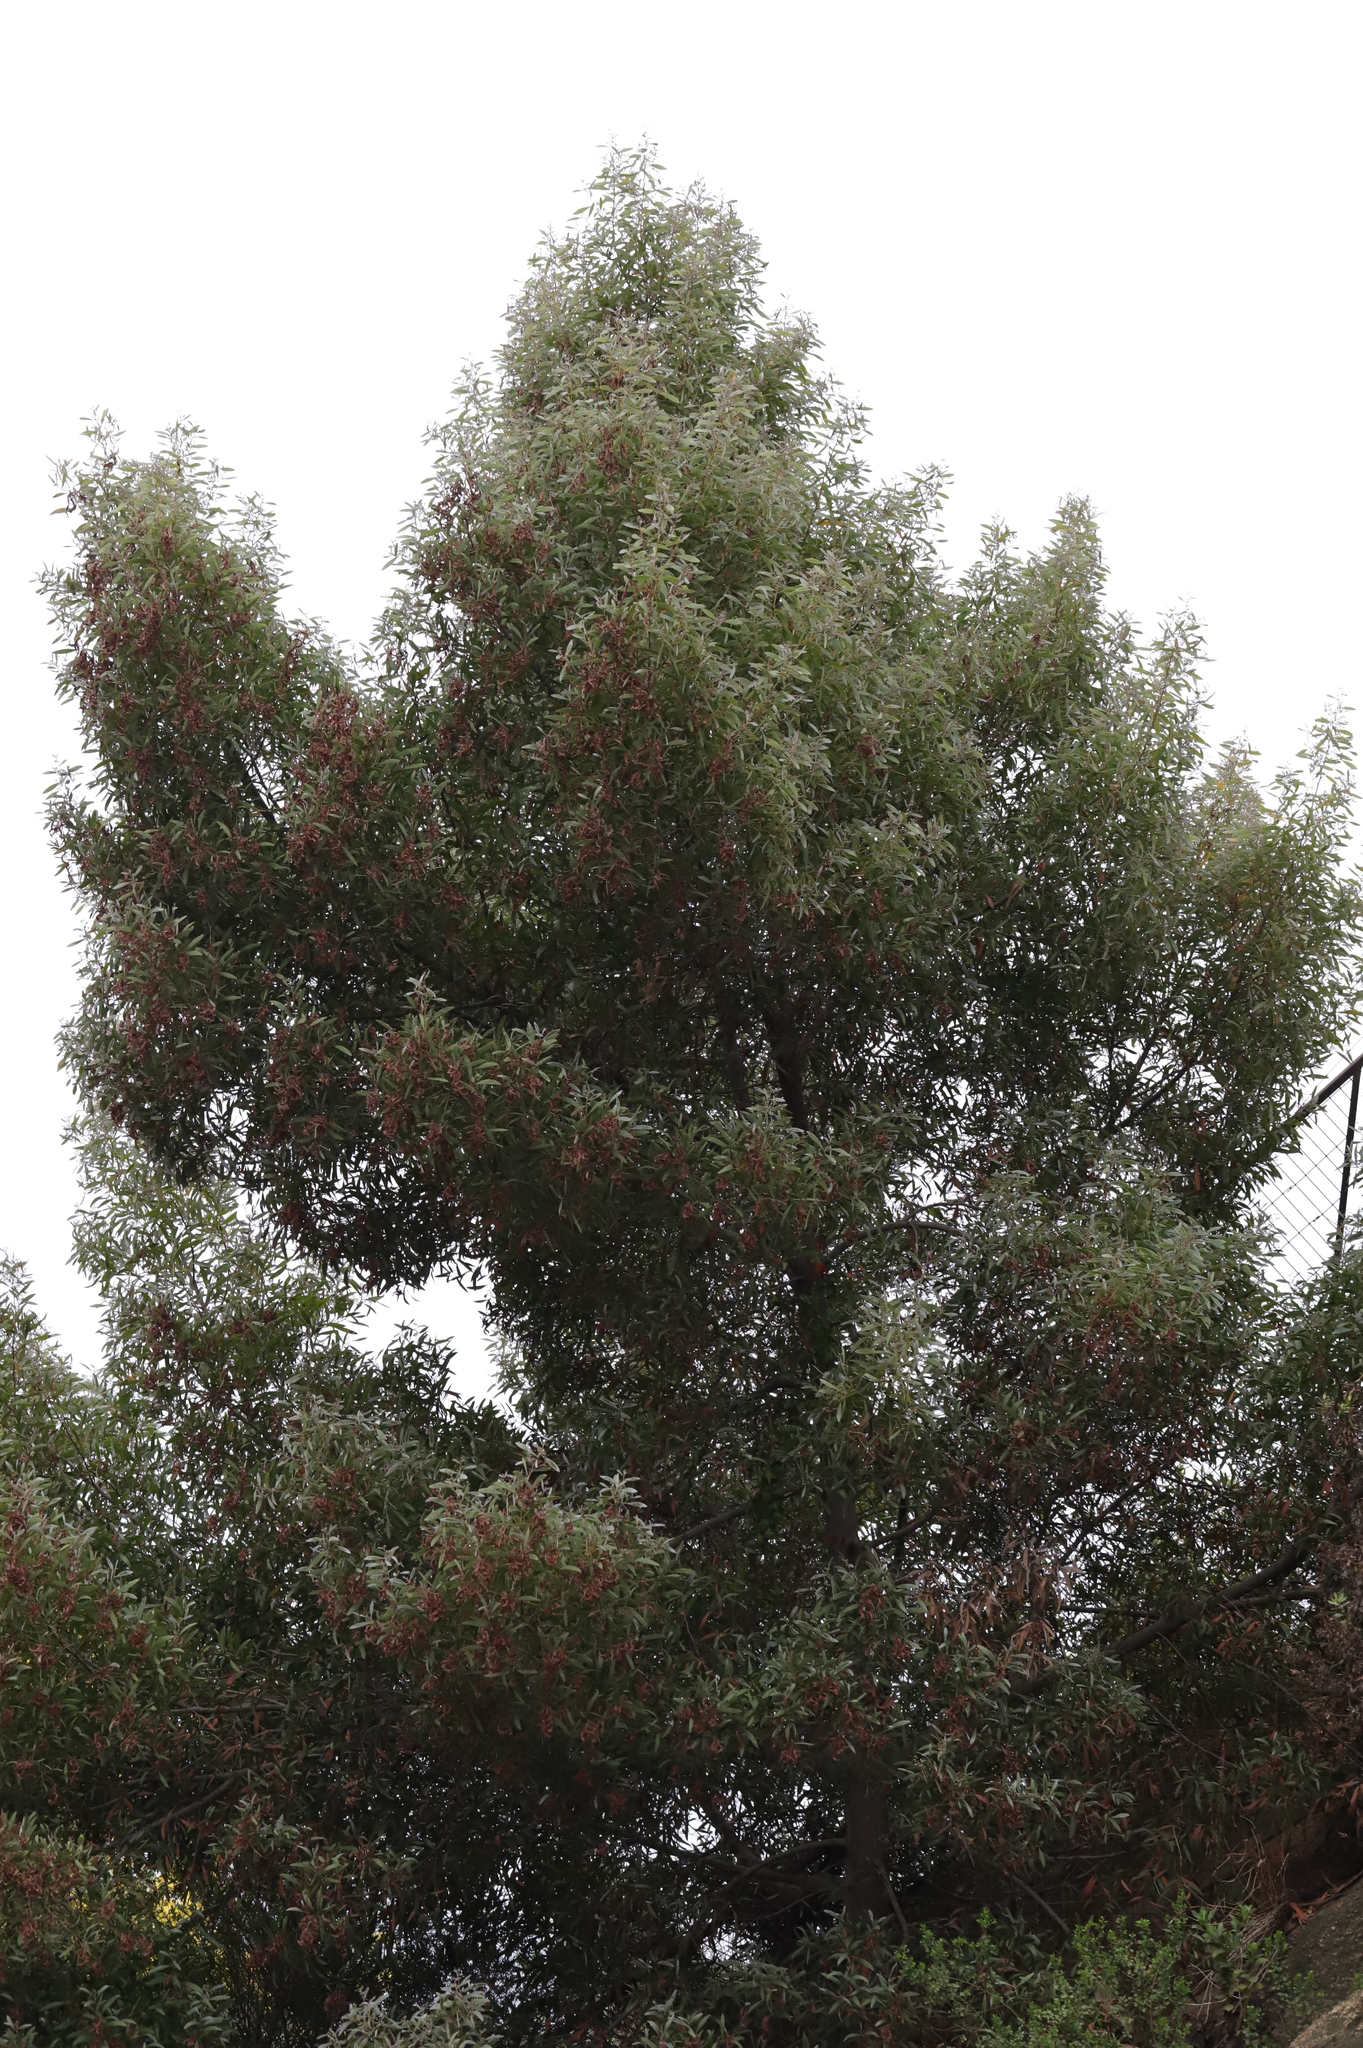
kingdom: Plantae
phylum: Tracheophyta
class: Magnoliopsida
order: Fabales
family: Fabaceae
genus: Acacia
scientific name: Acacia melanoxylon
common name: Blackwood
